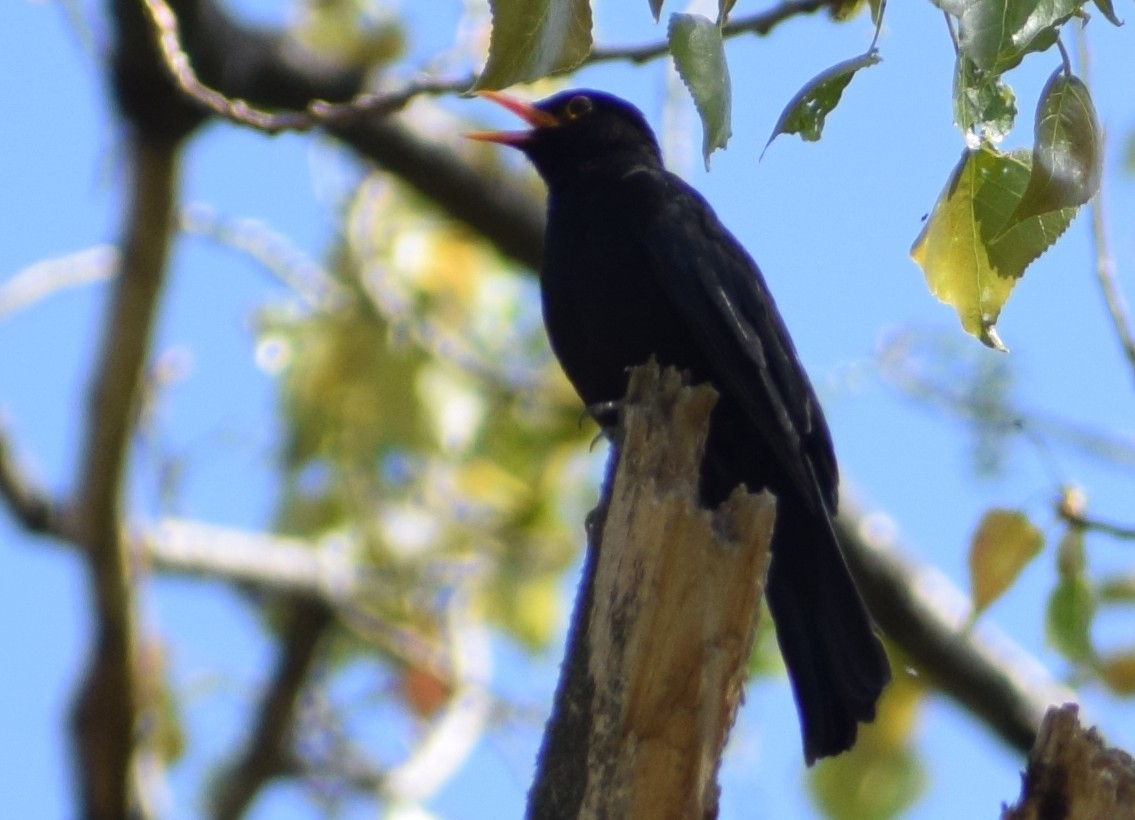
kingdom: Animalia
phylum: Chordata
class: Aves
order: Passeriformes
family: Turdidae
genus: Turdus
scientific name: Turdus merula
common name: Common blackbird
